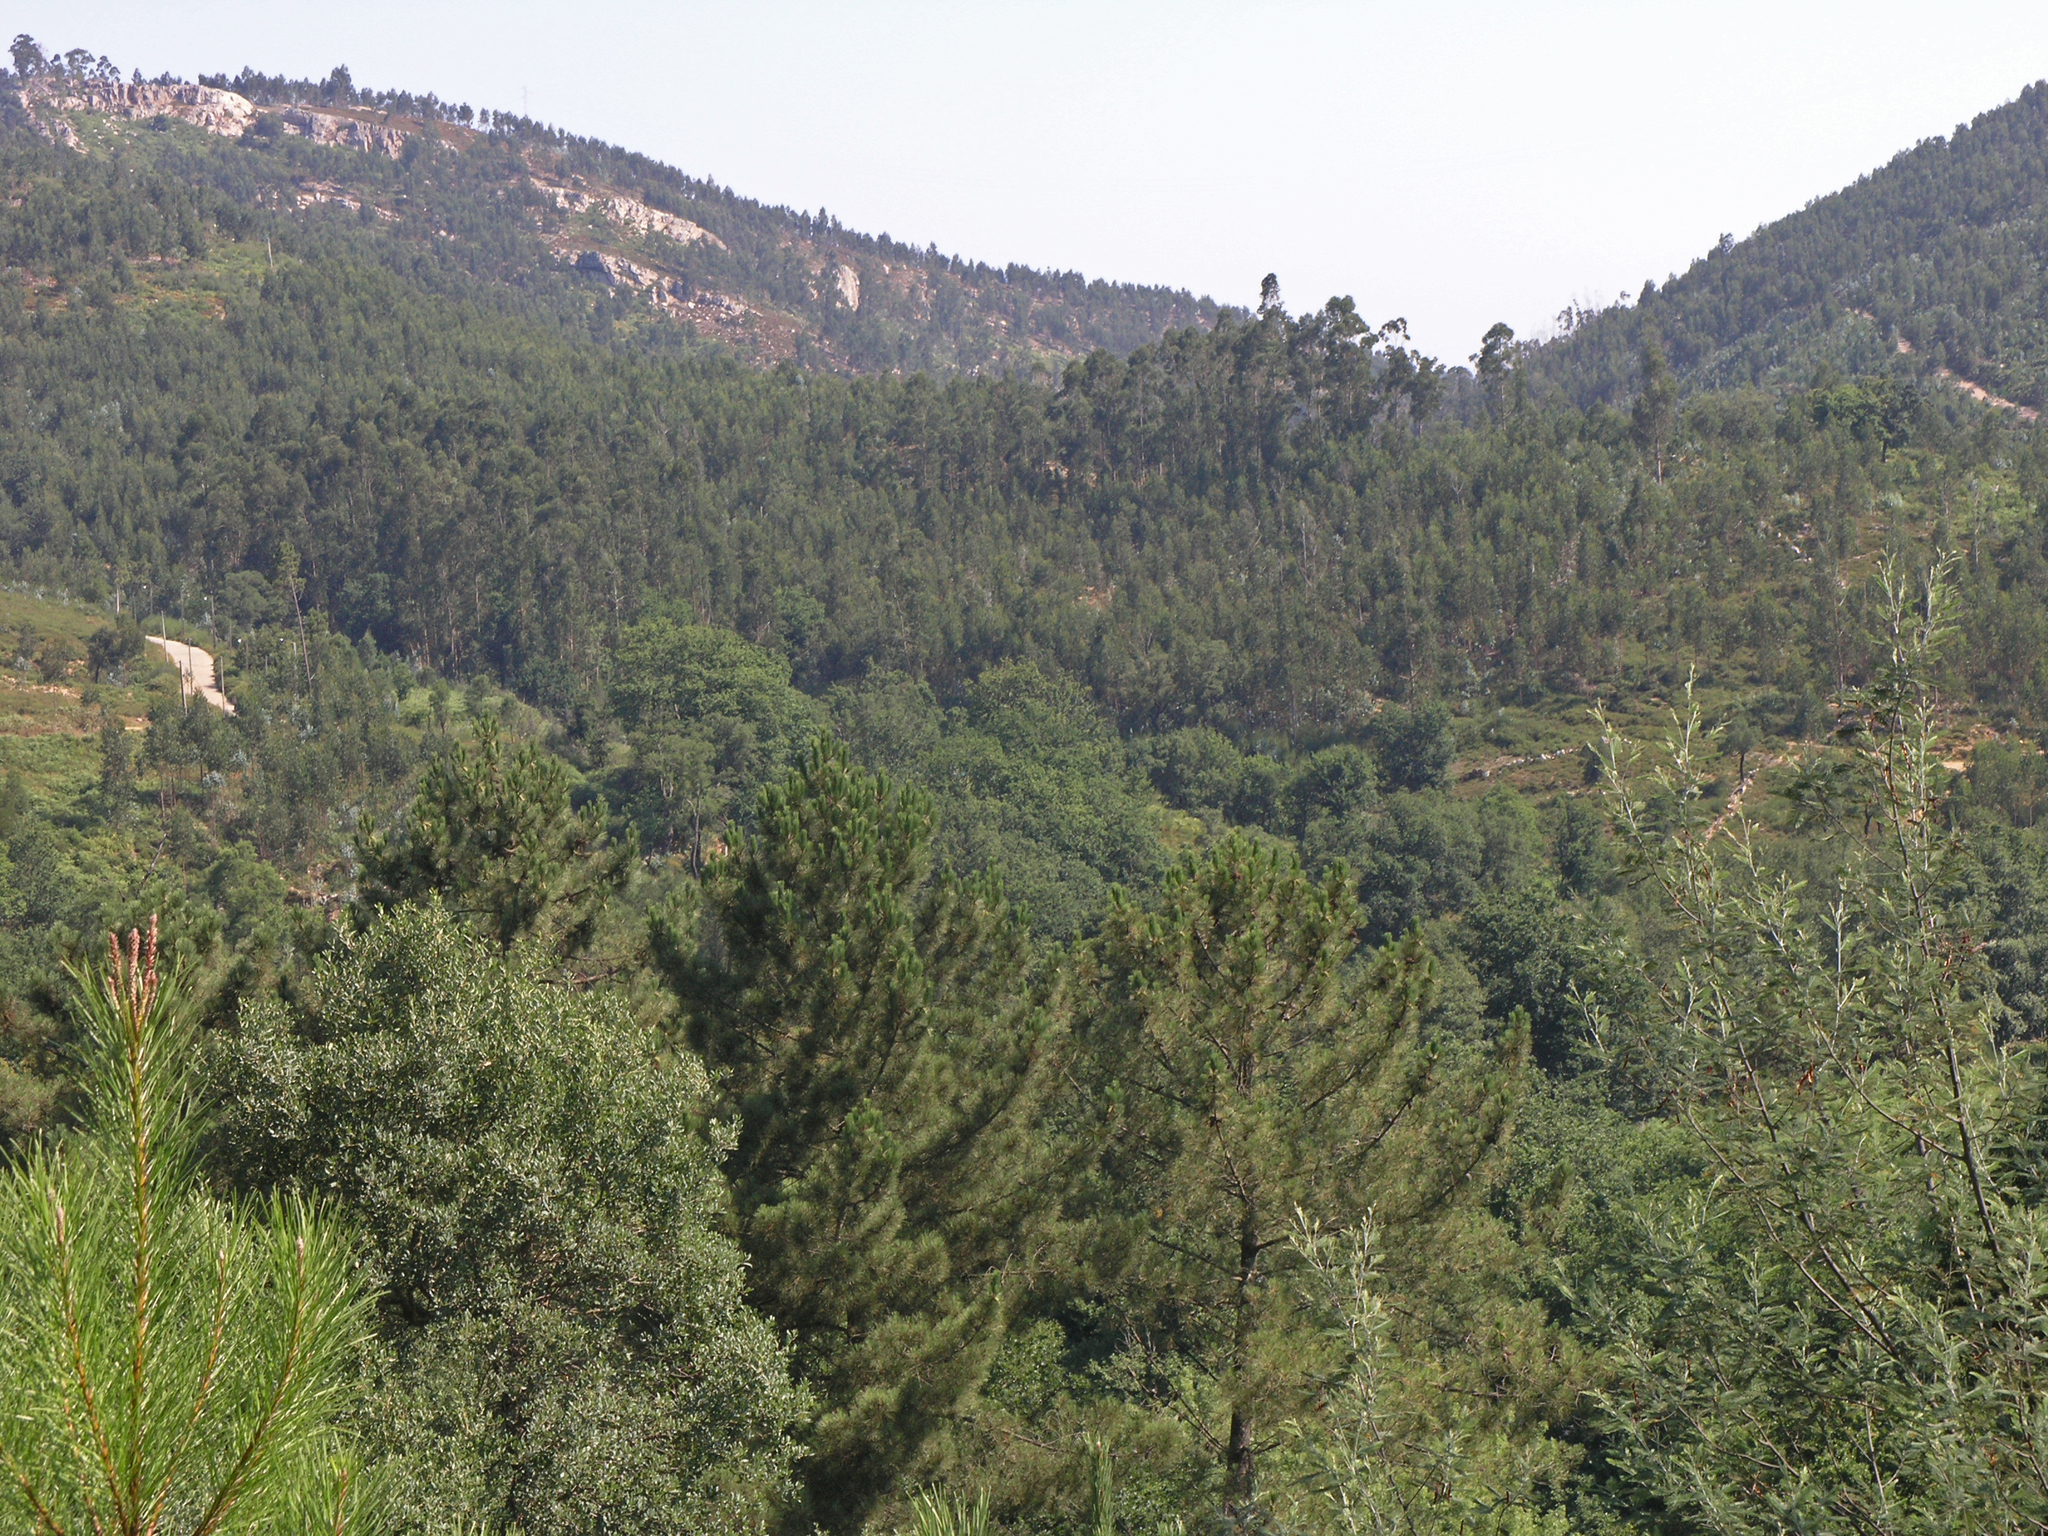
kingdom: Plantae
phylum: Tracheophyta
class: Pinopsida
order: Pinales
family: Pinaceae
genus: Pinus
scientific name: Pinus pinaster
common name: Maritime pine
